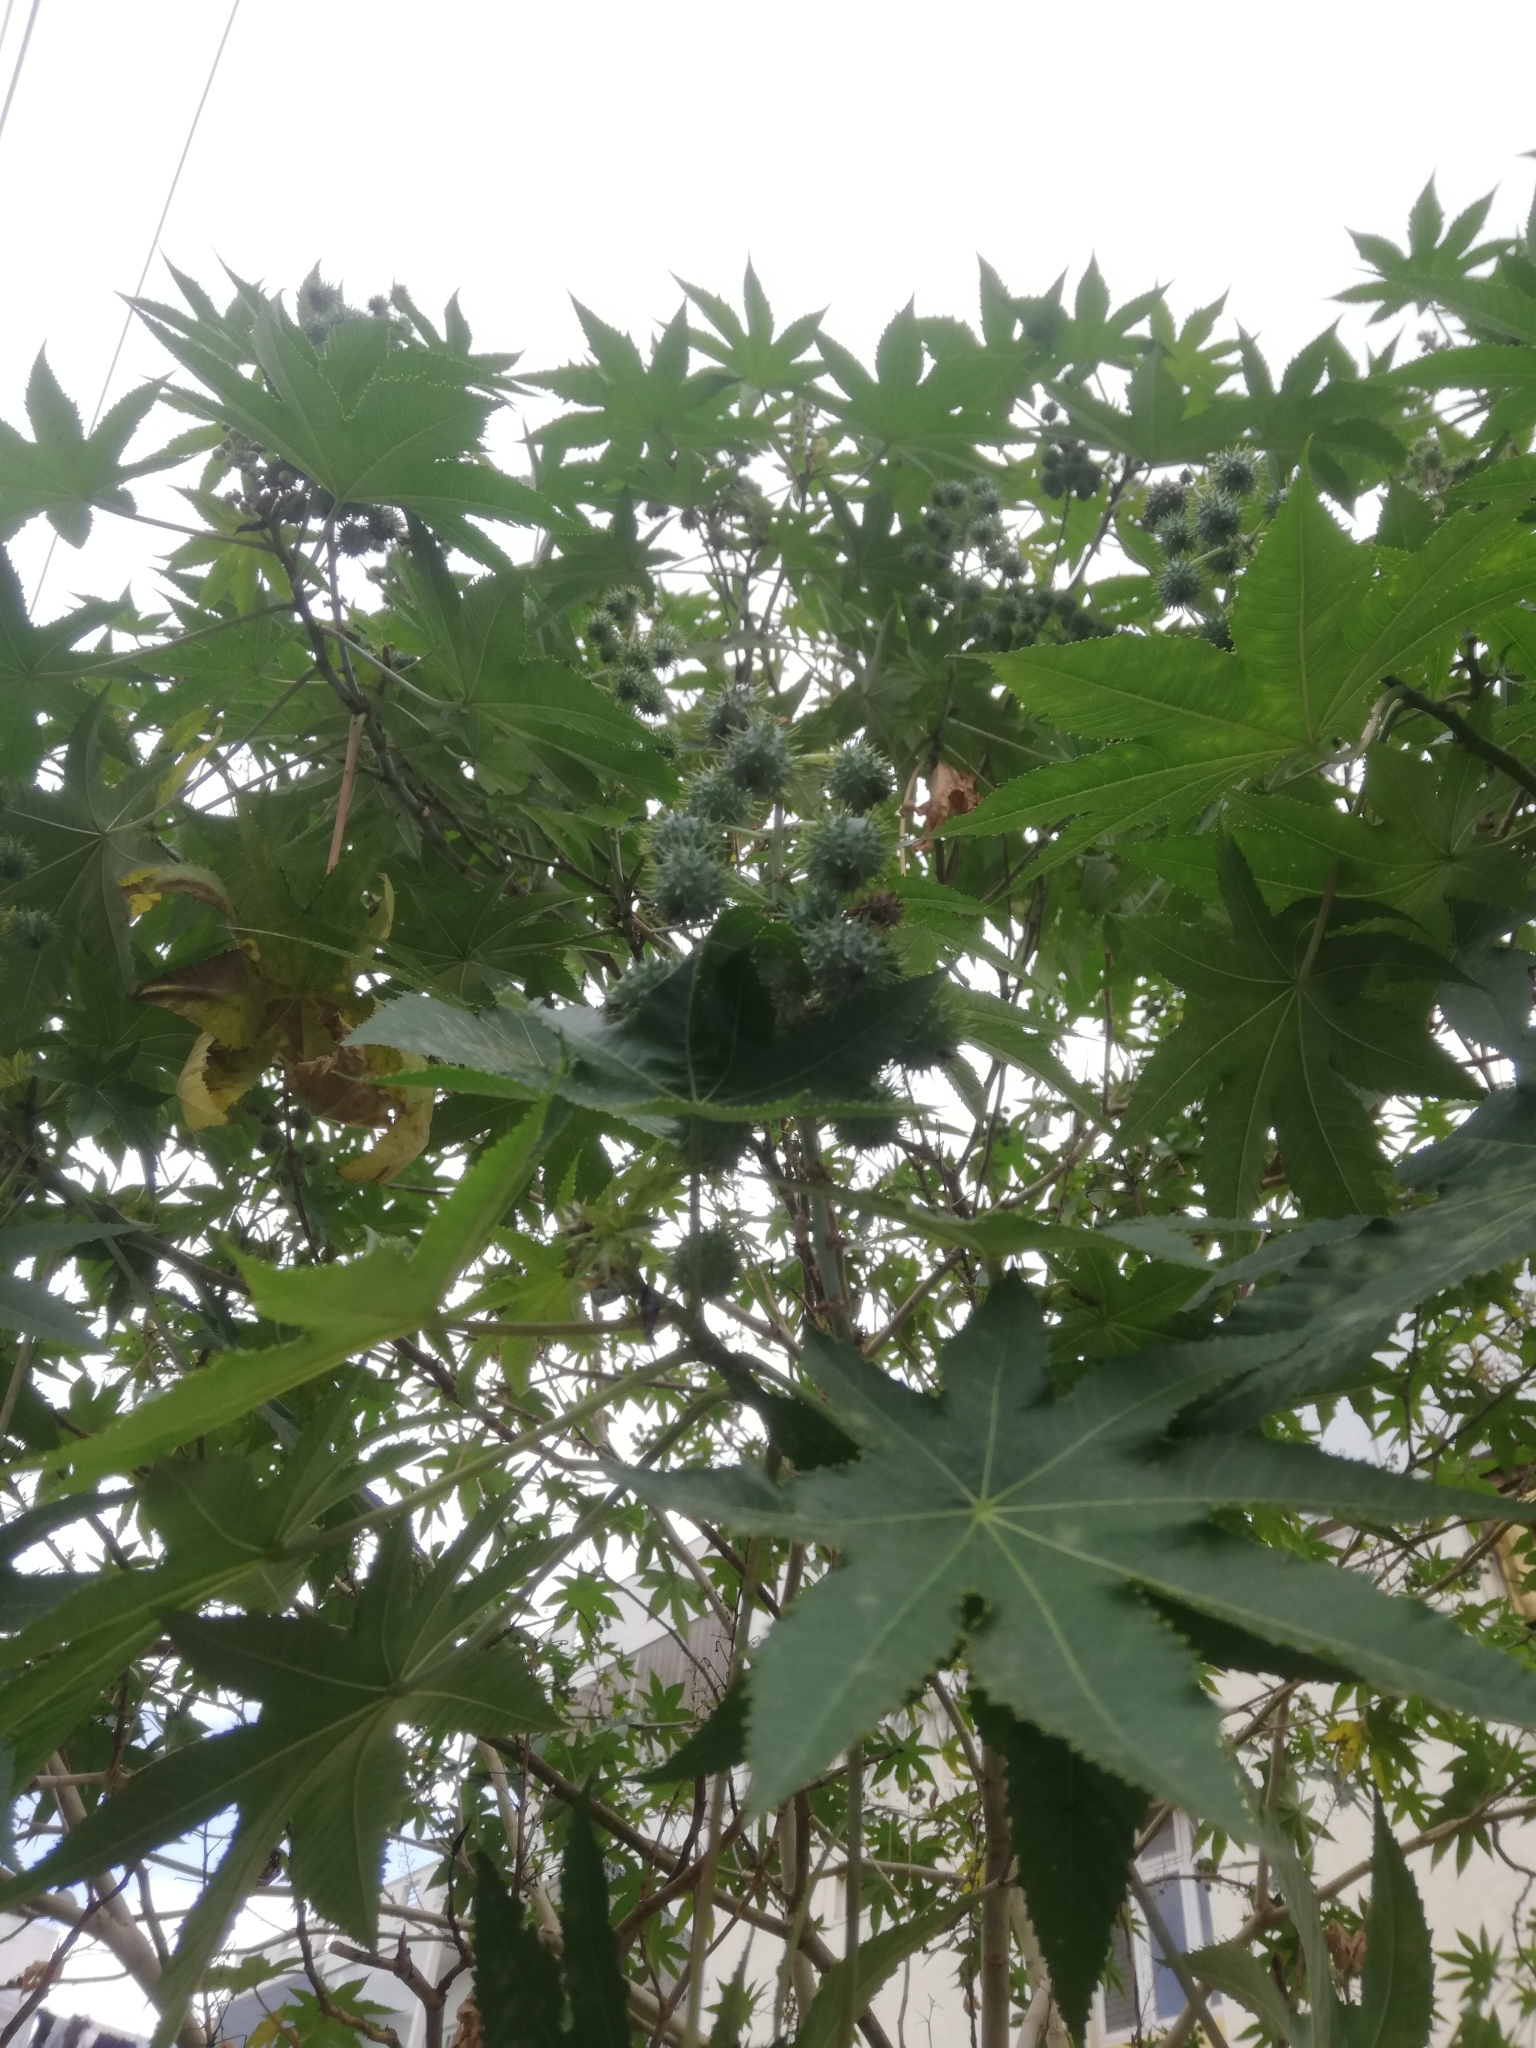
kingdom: Plantae
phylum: Tracheophyta
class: Magnoliopsida
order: Malpighiales
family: Euphorbiaceae
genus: Ricinus
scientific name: Ricinus communis
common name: Castor-oil-plant
